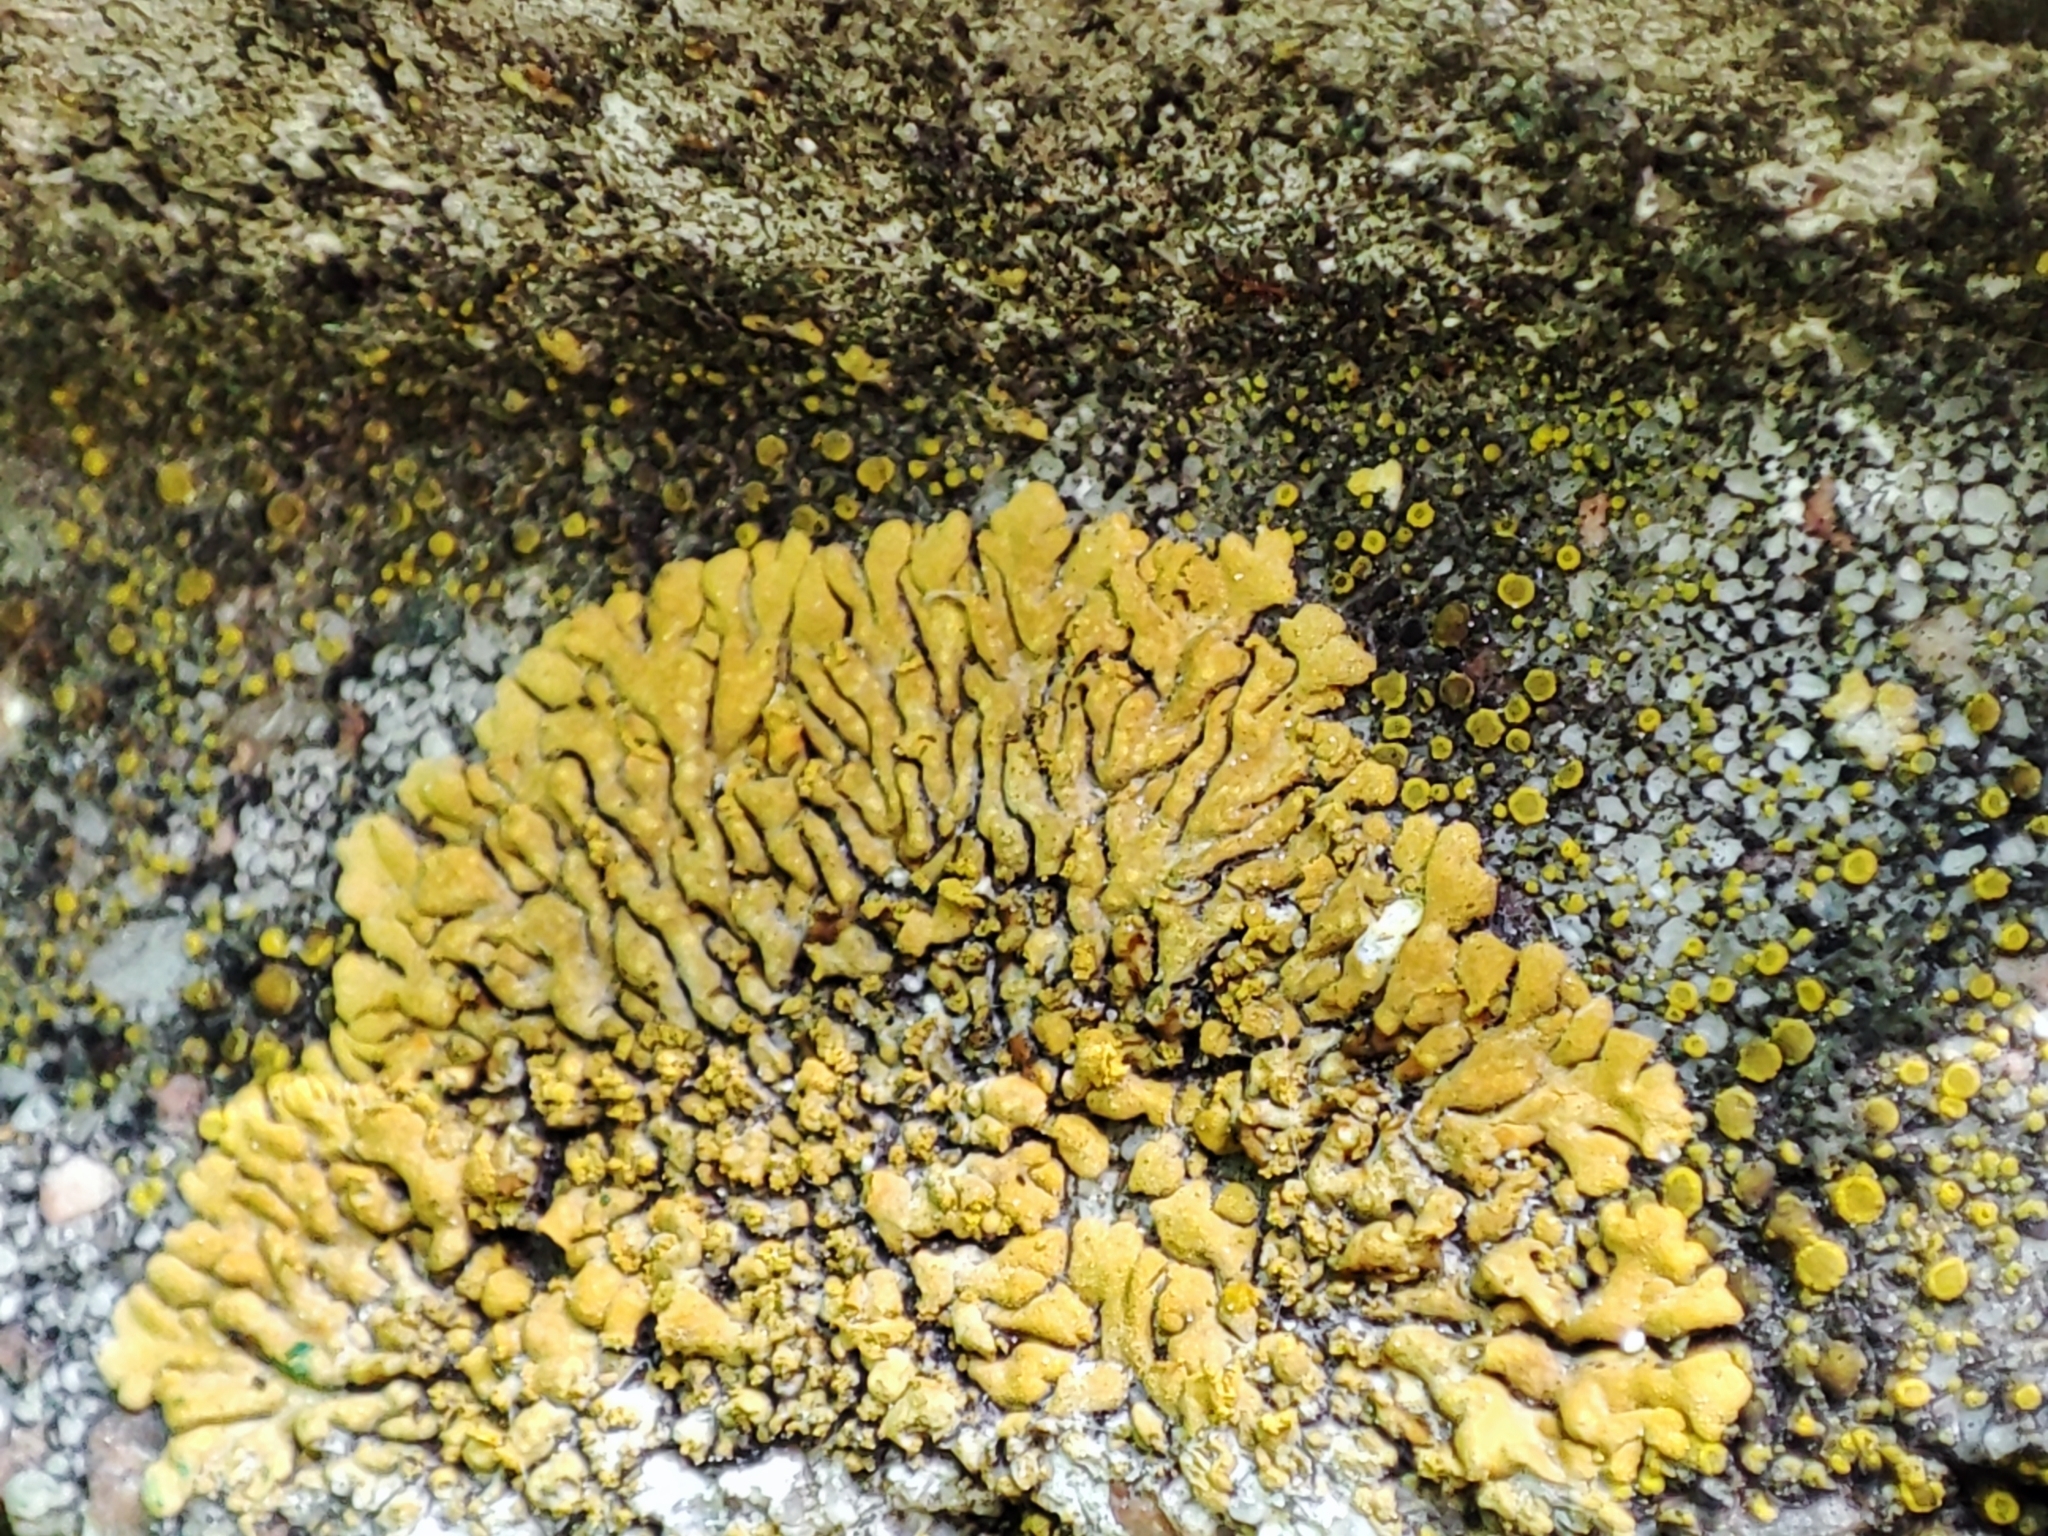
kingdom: Fungi
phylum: Ascomycota
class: Lecanoromycetes
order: Teloschistales
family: Teloschistaceae
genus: Calogaya
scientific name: Calogaya decipiens
